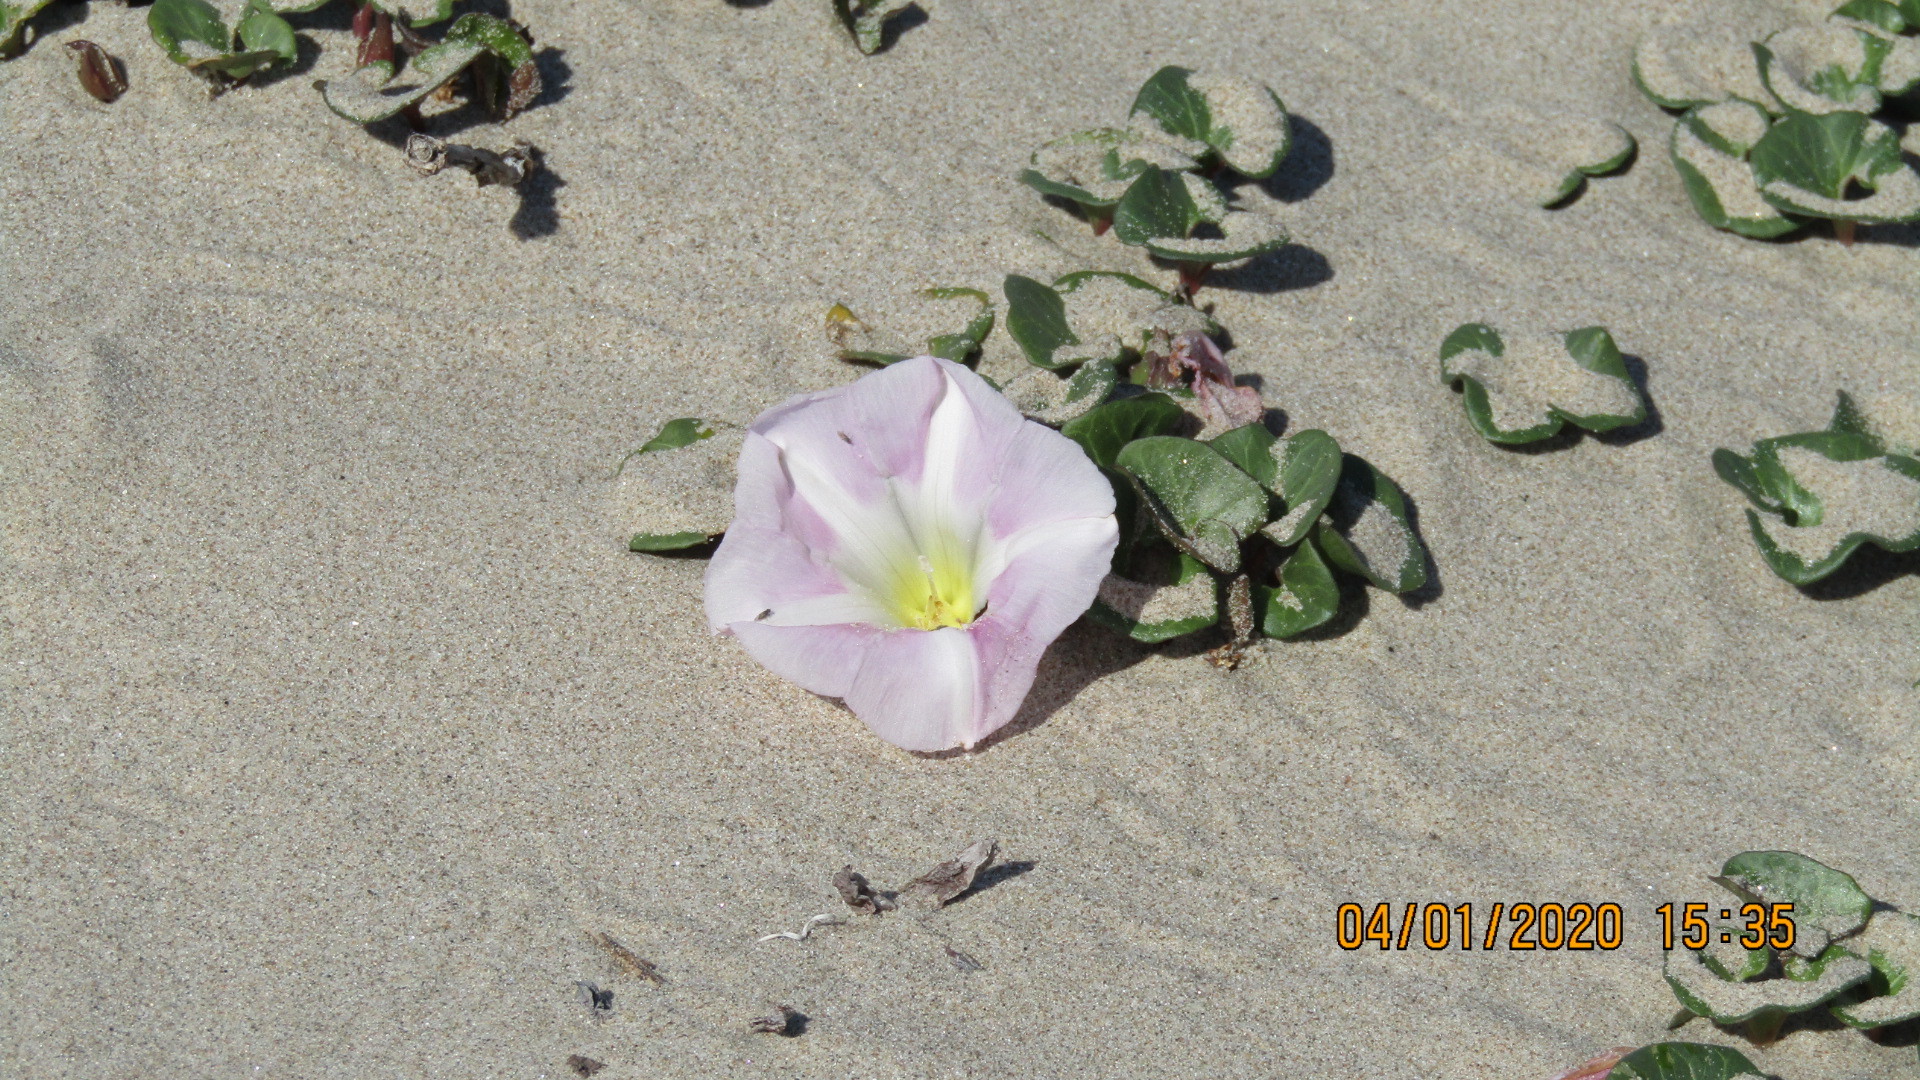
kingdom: Plantae
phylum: Tracheophyta
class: Magnoliopsida
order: Solanales
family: Convolvulaceae
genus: Calystegia
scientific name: Calystegia soldanella
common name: Sea bindweed
